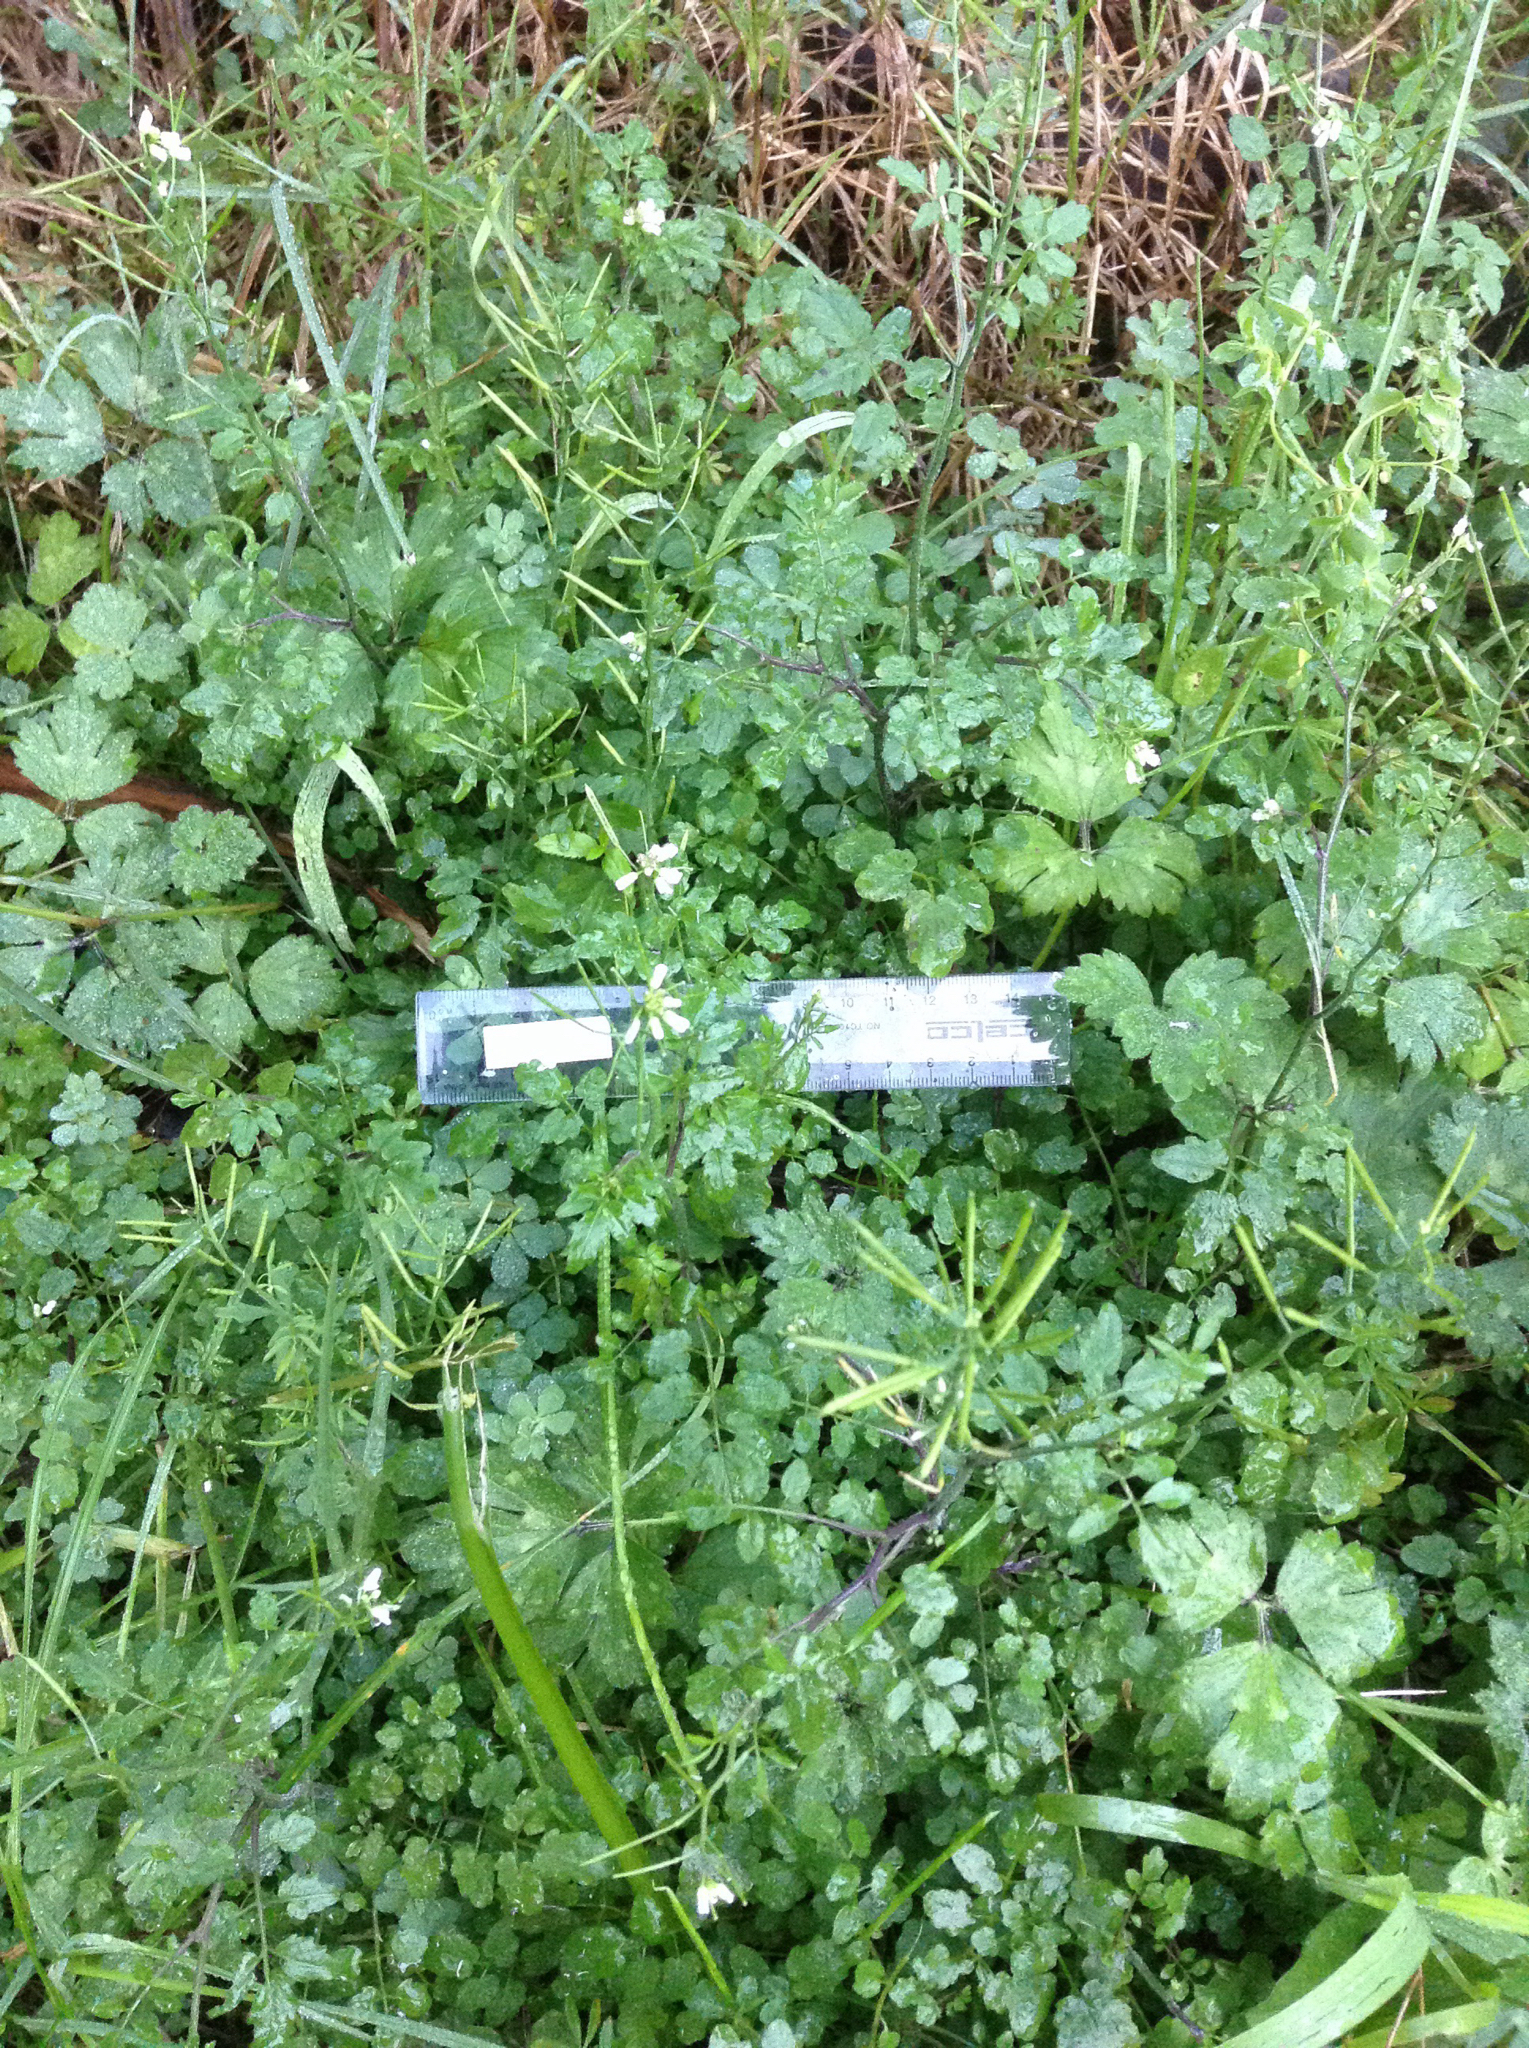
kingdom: Plantae
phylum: Tracheophyta
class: Magnoliopsida
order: Brassicales
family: Brassicaceae
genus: Nasturtium
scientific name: Nasturtium microphyllum
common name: Onerow yellowcress
